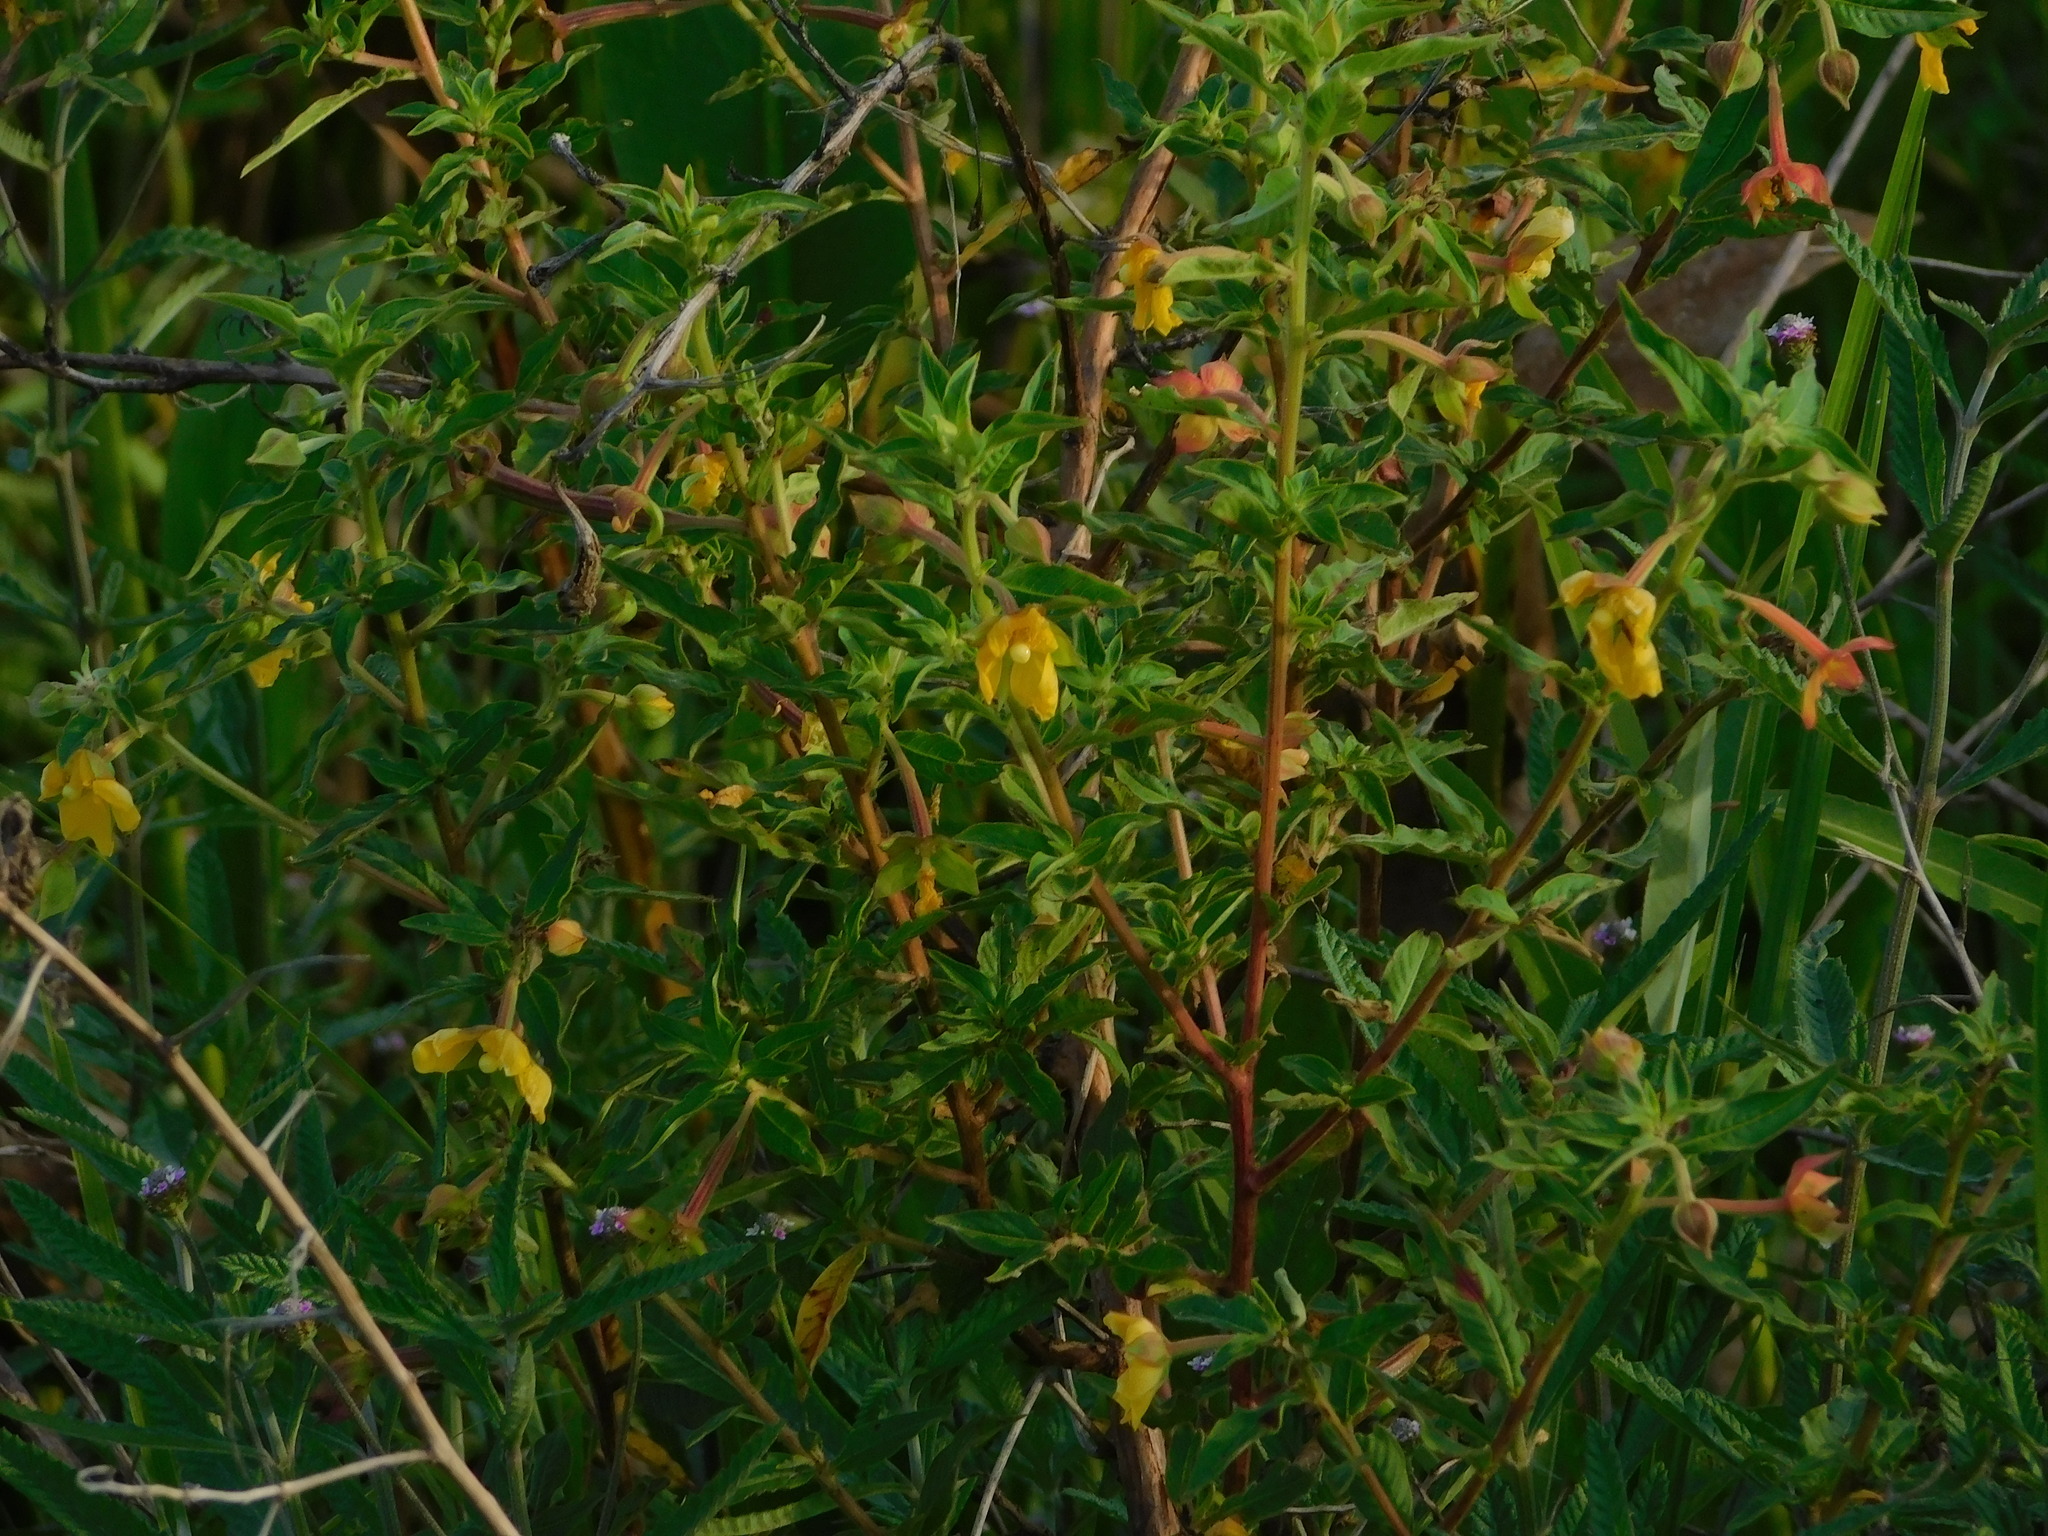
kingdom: Plantae
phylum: Tracheophyta
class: Magnoliopsida
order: Myrtales
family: Onagraceae
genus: Ludwigia
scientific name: Ludwigia octovalvis
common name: Water-primrose
